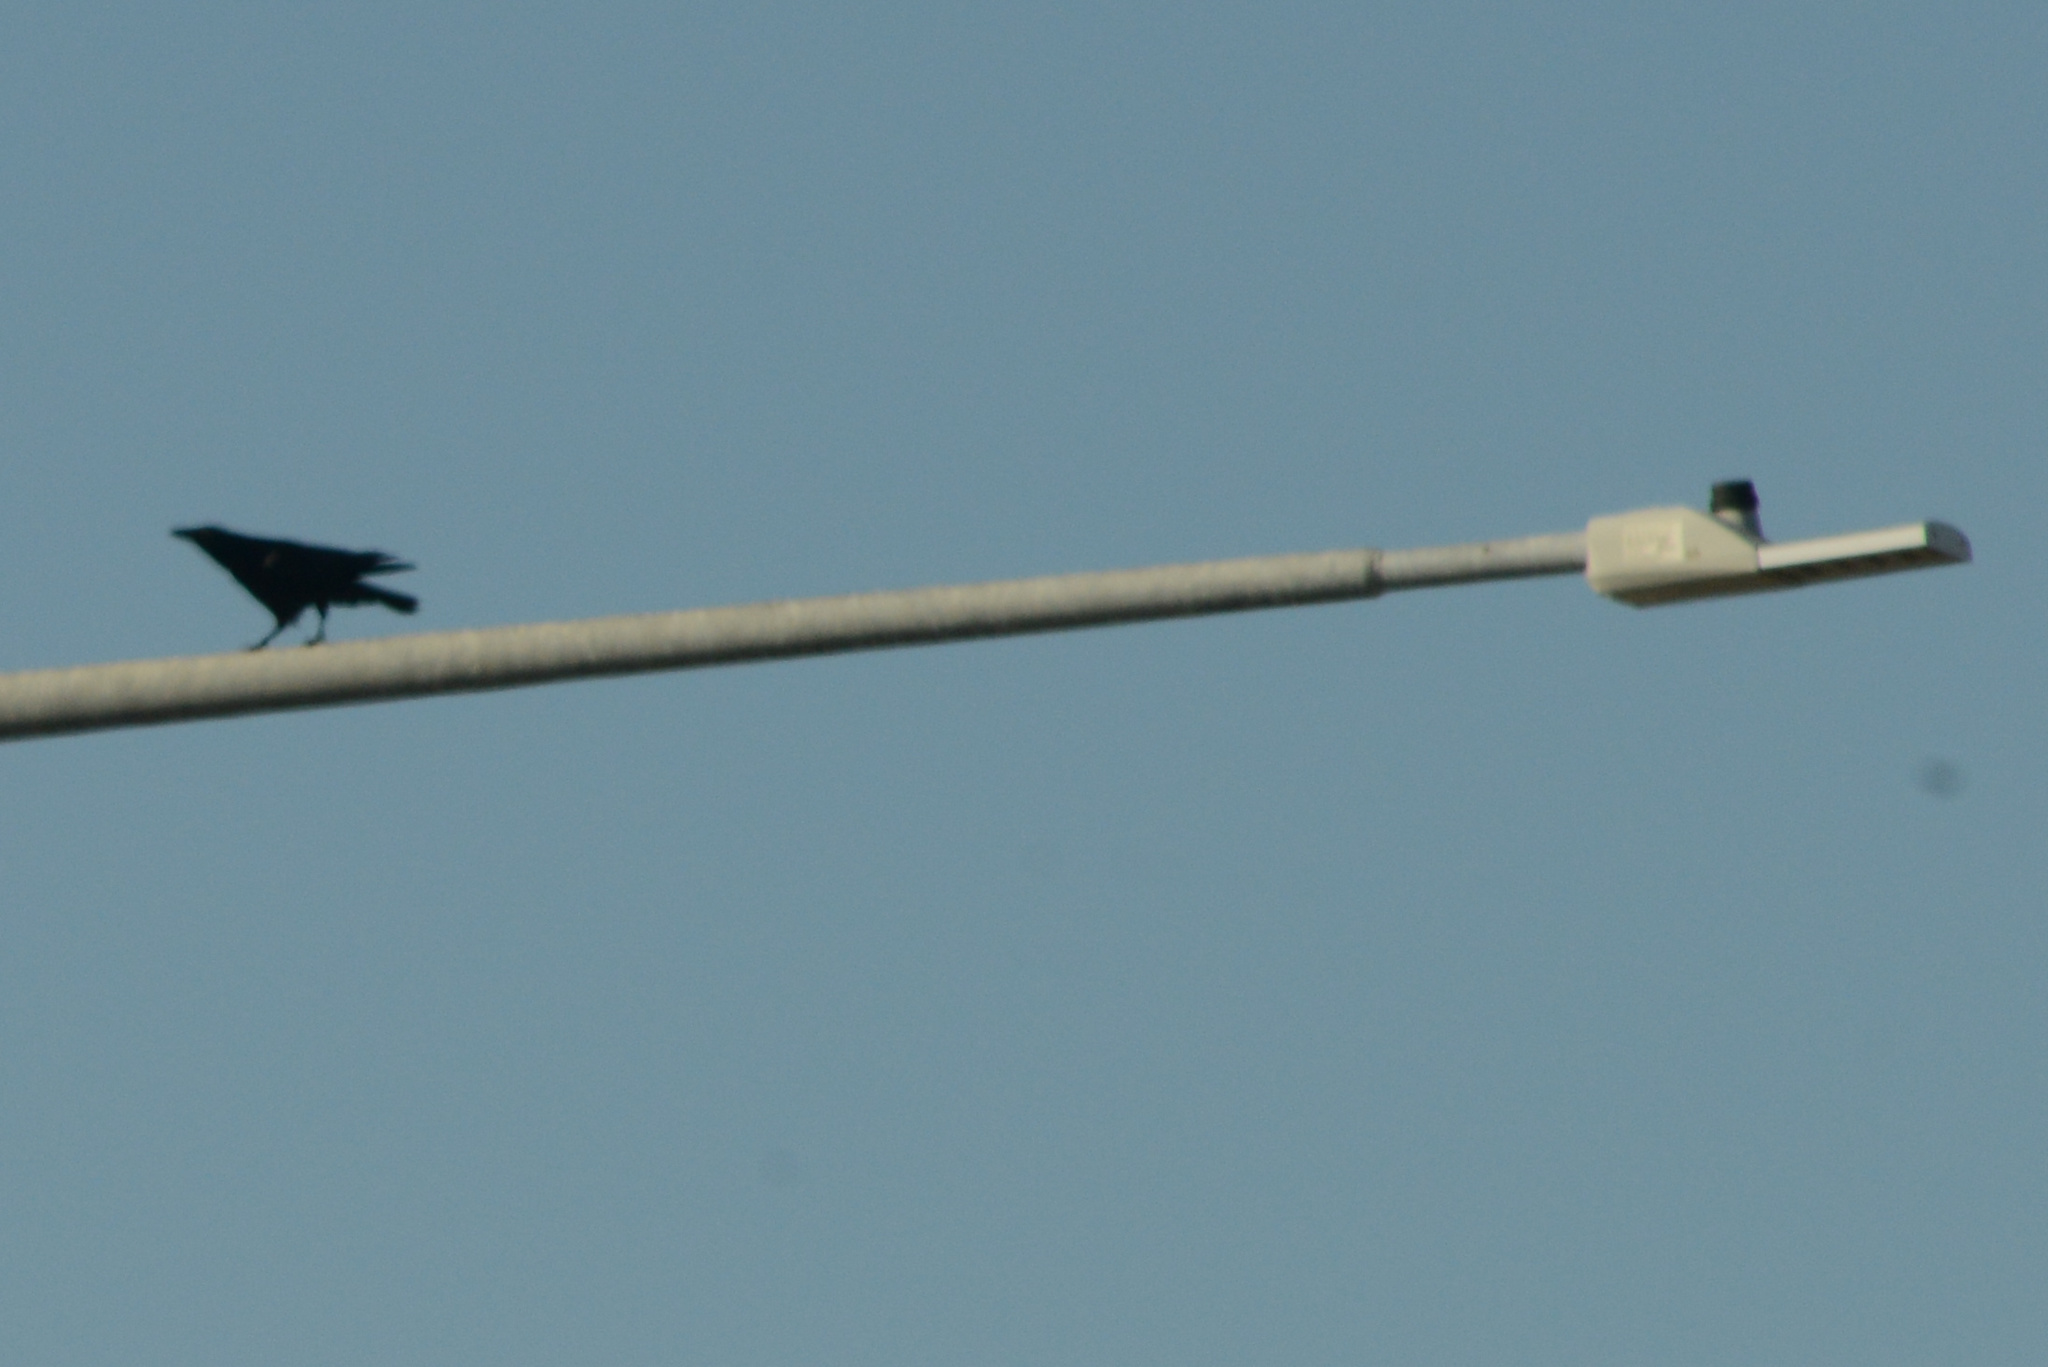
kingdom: Animalia
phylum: Chordata
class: Aves
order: Passeriformes
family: Corvidae
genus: Corvus
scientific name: Corvus brachyrhynchos
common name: American crow
